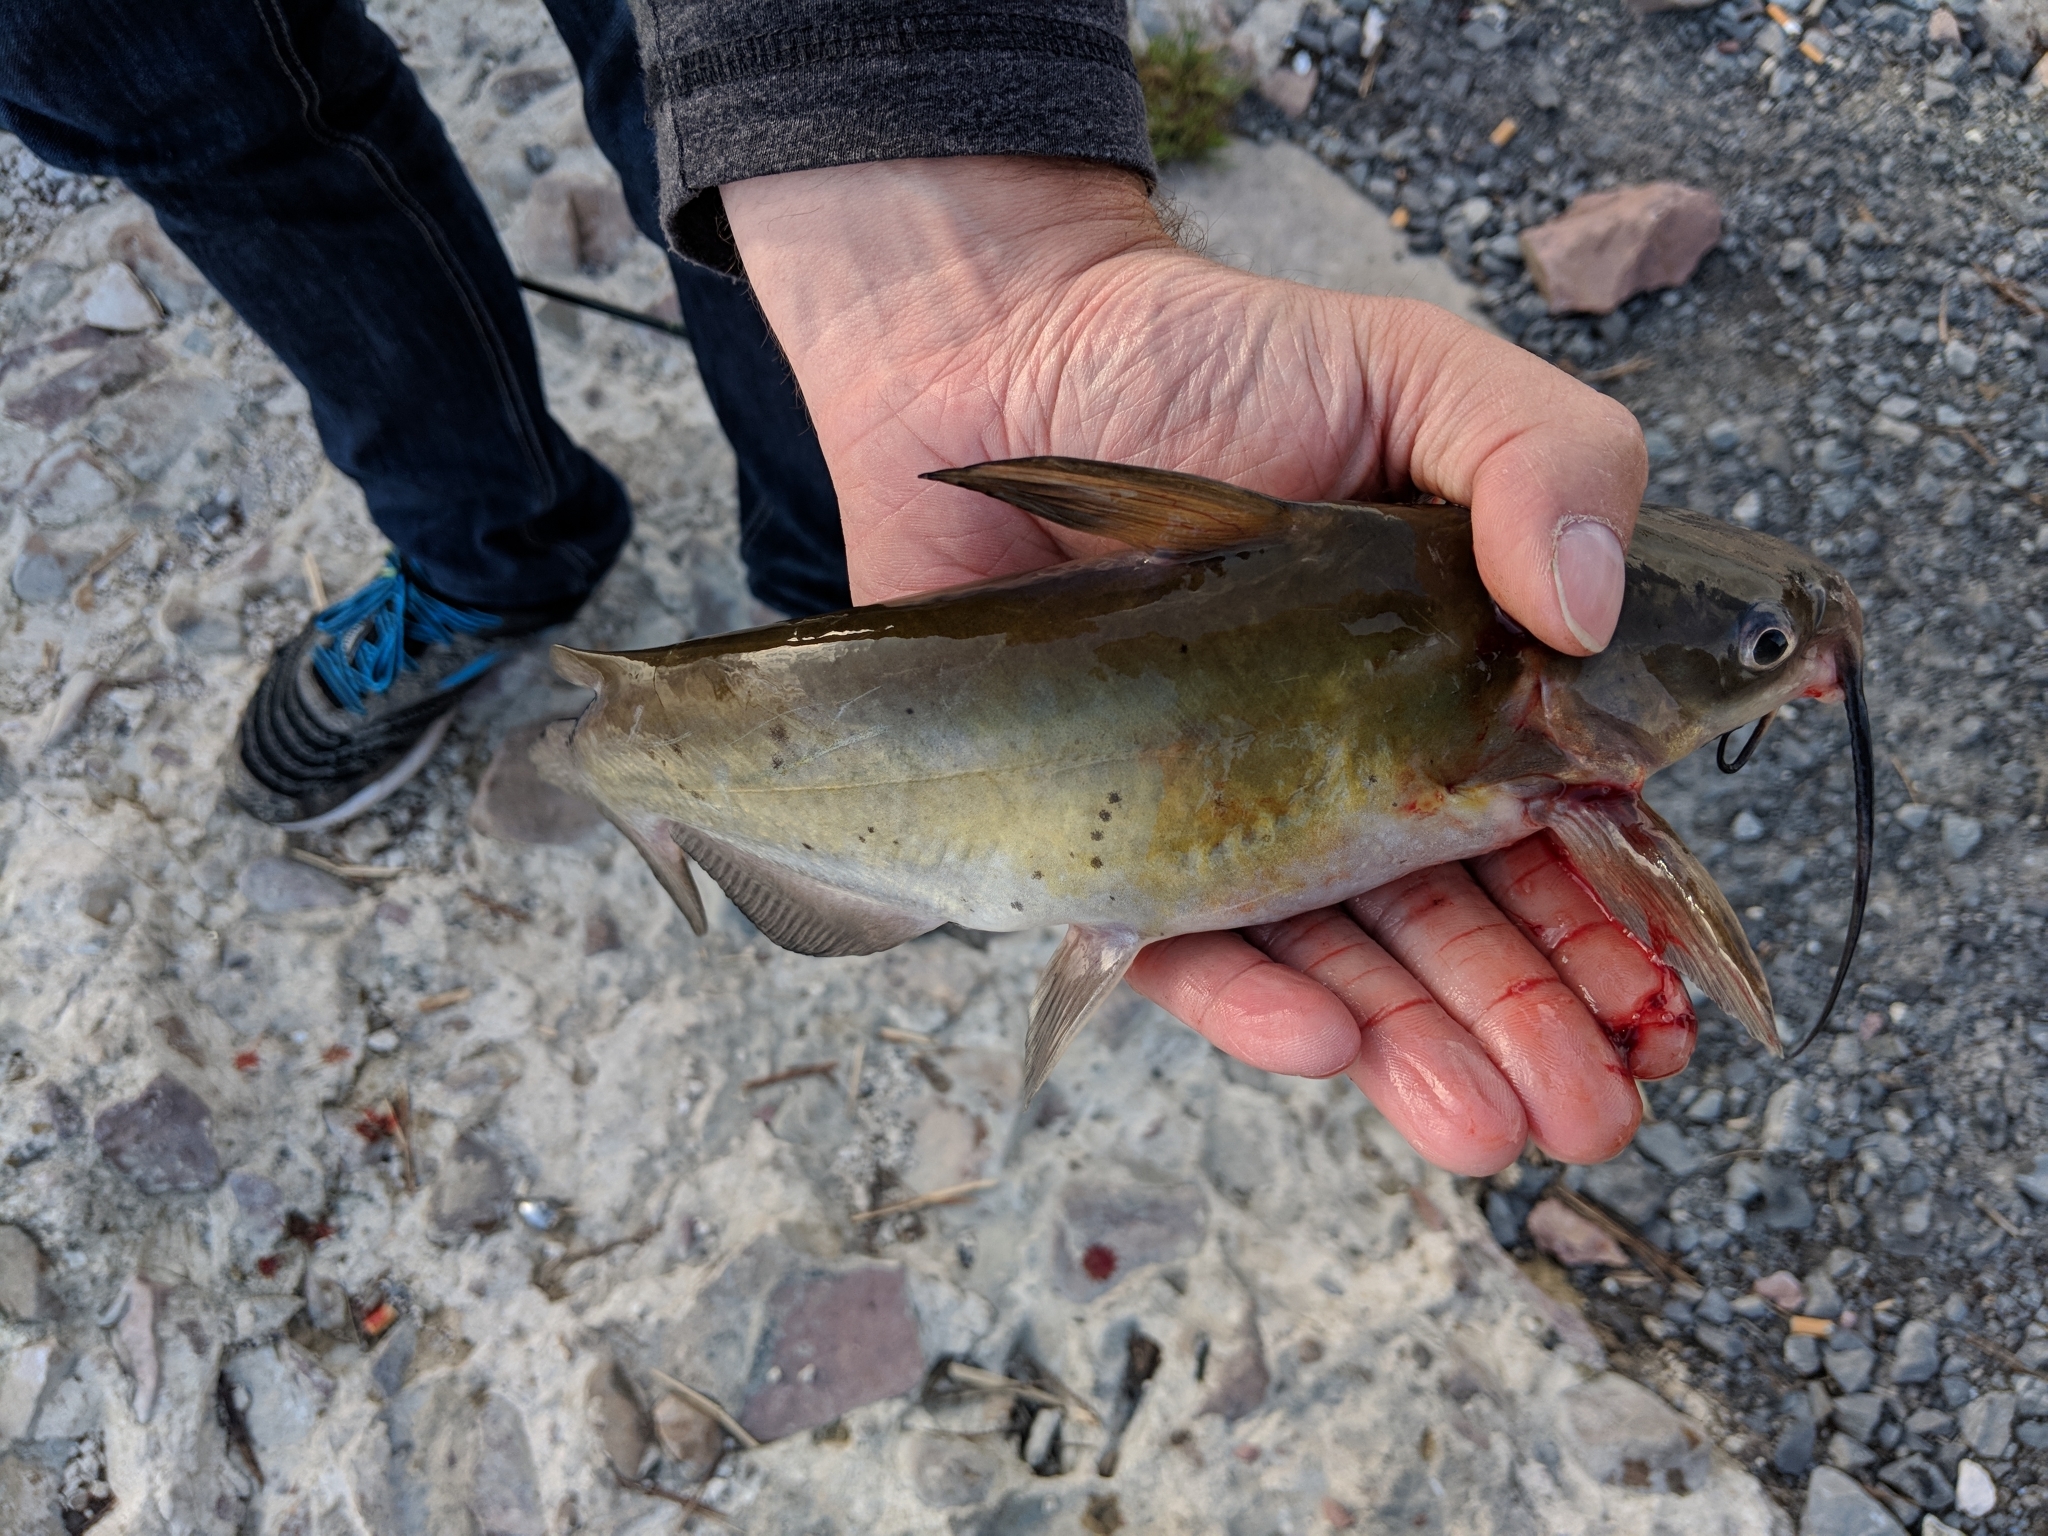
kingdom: Animalia
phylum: Chordata
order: Siluriformes
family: Ictaluridae
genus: Ictalurus
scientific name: Ictalurus punctatus
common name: Channel catfish
